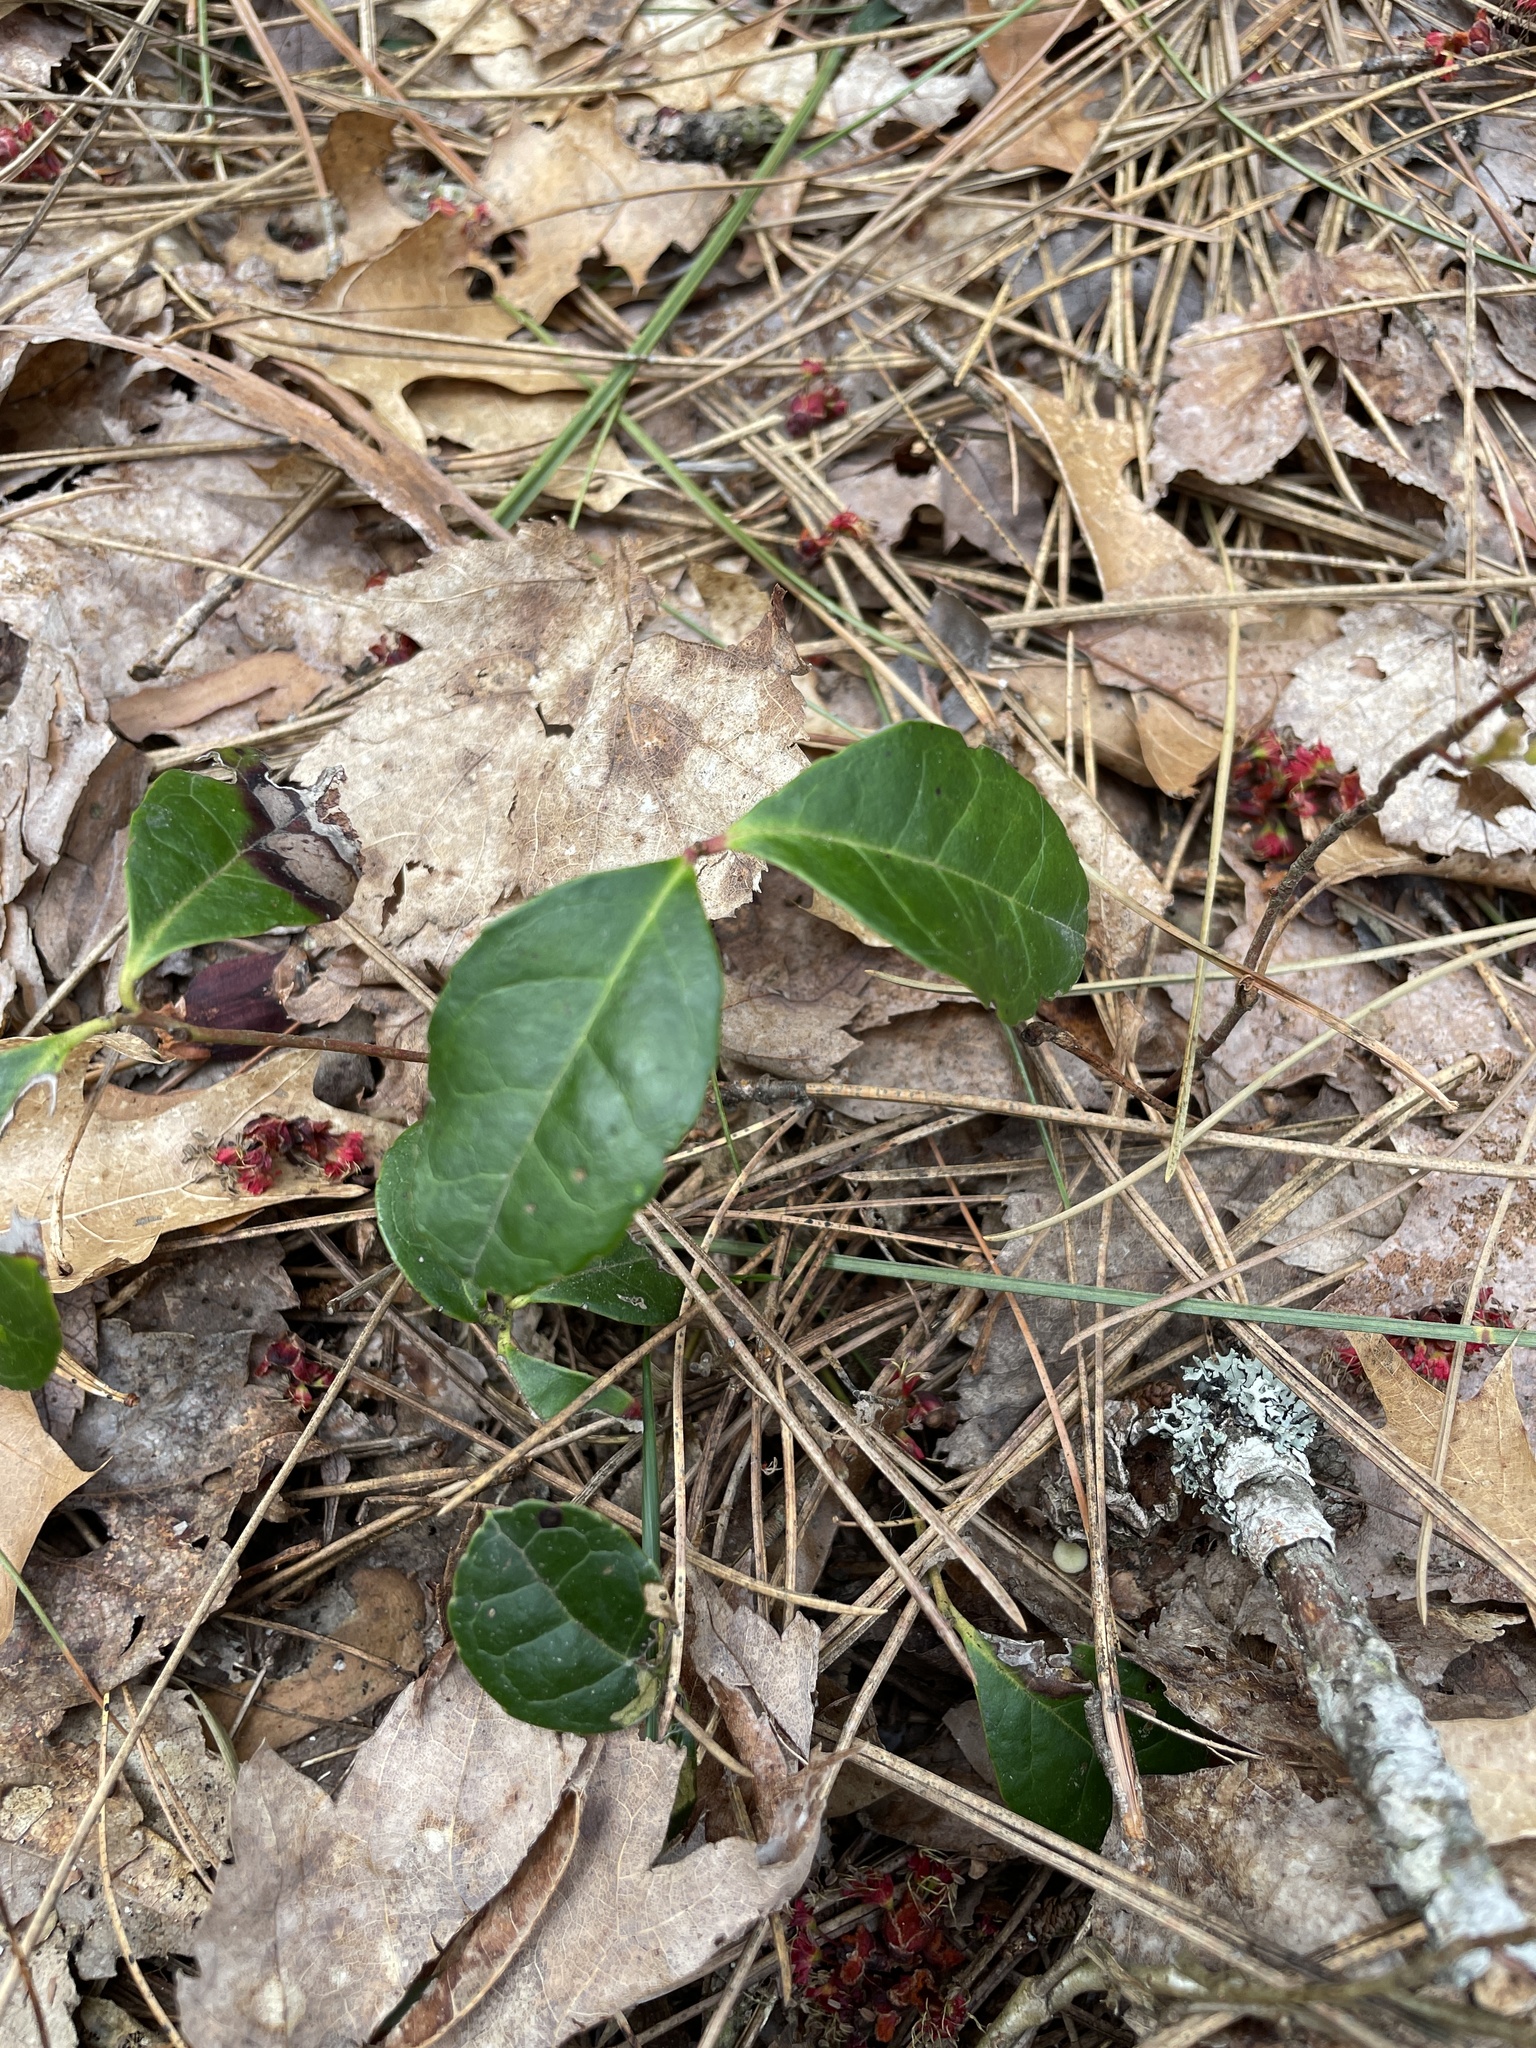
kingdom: Plantae
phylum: Tracheophyta
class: Magnoliopsida
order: Ericales
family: Ericaceae
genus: Gaultheria
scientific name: Gaultheria procumbens
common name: Checkerberry
